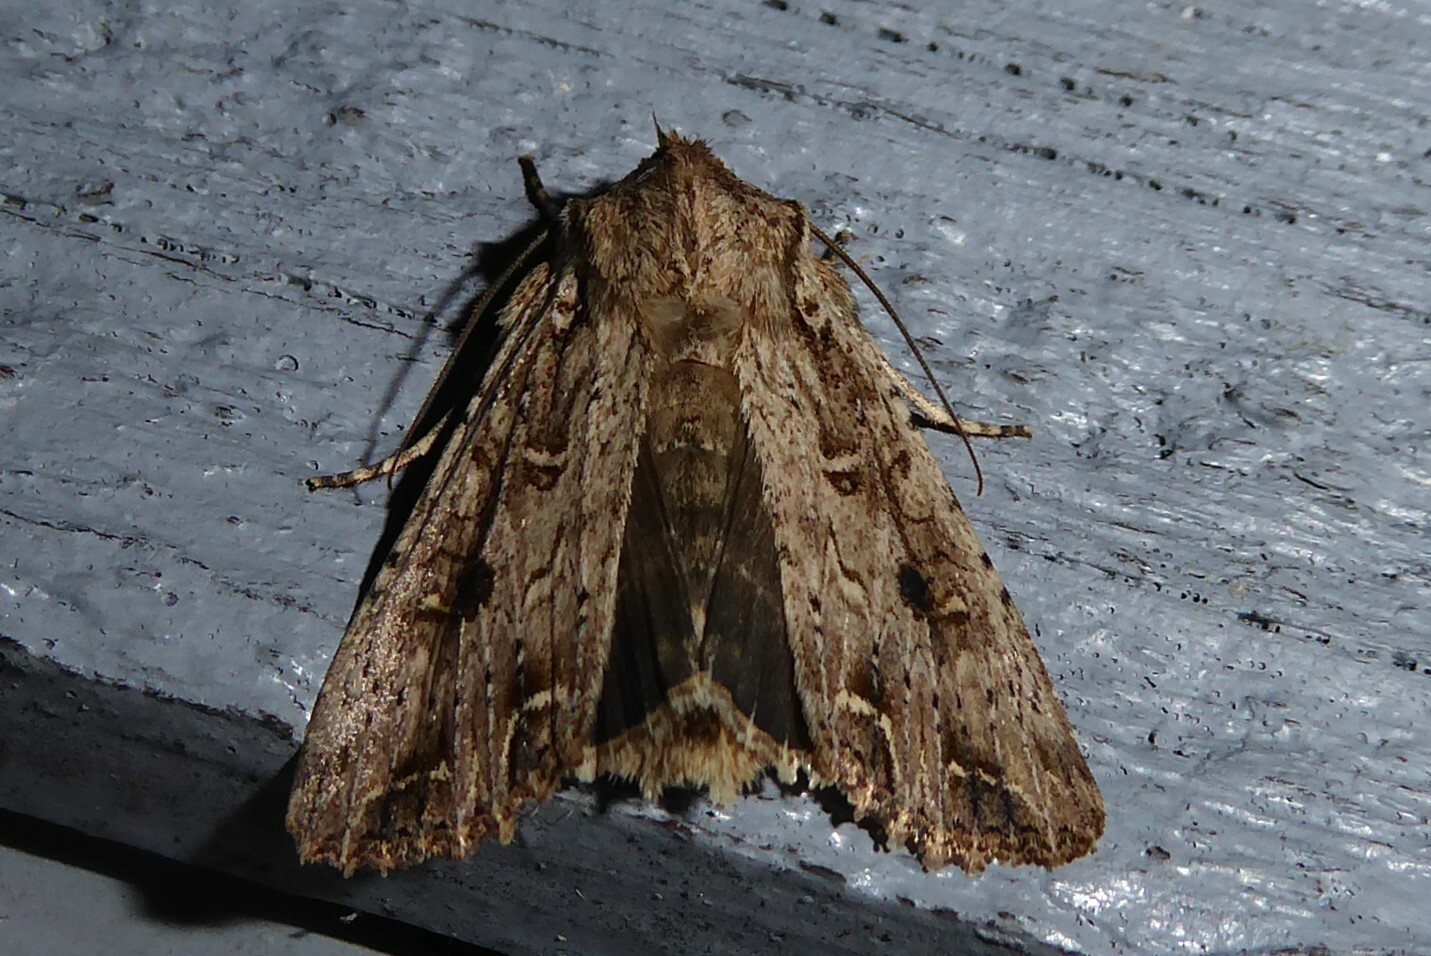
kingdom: Animalia
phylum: Arthropoda
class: Insecta
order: Lepidoptera
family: Noctuidae
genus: Ichneutica
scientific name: Ichneutica lignana
